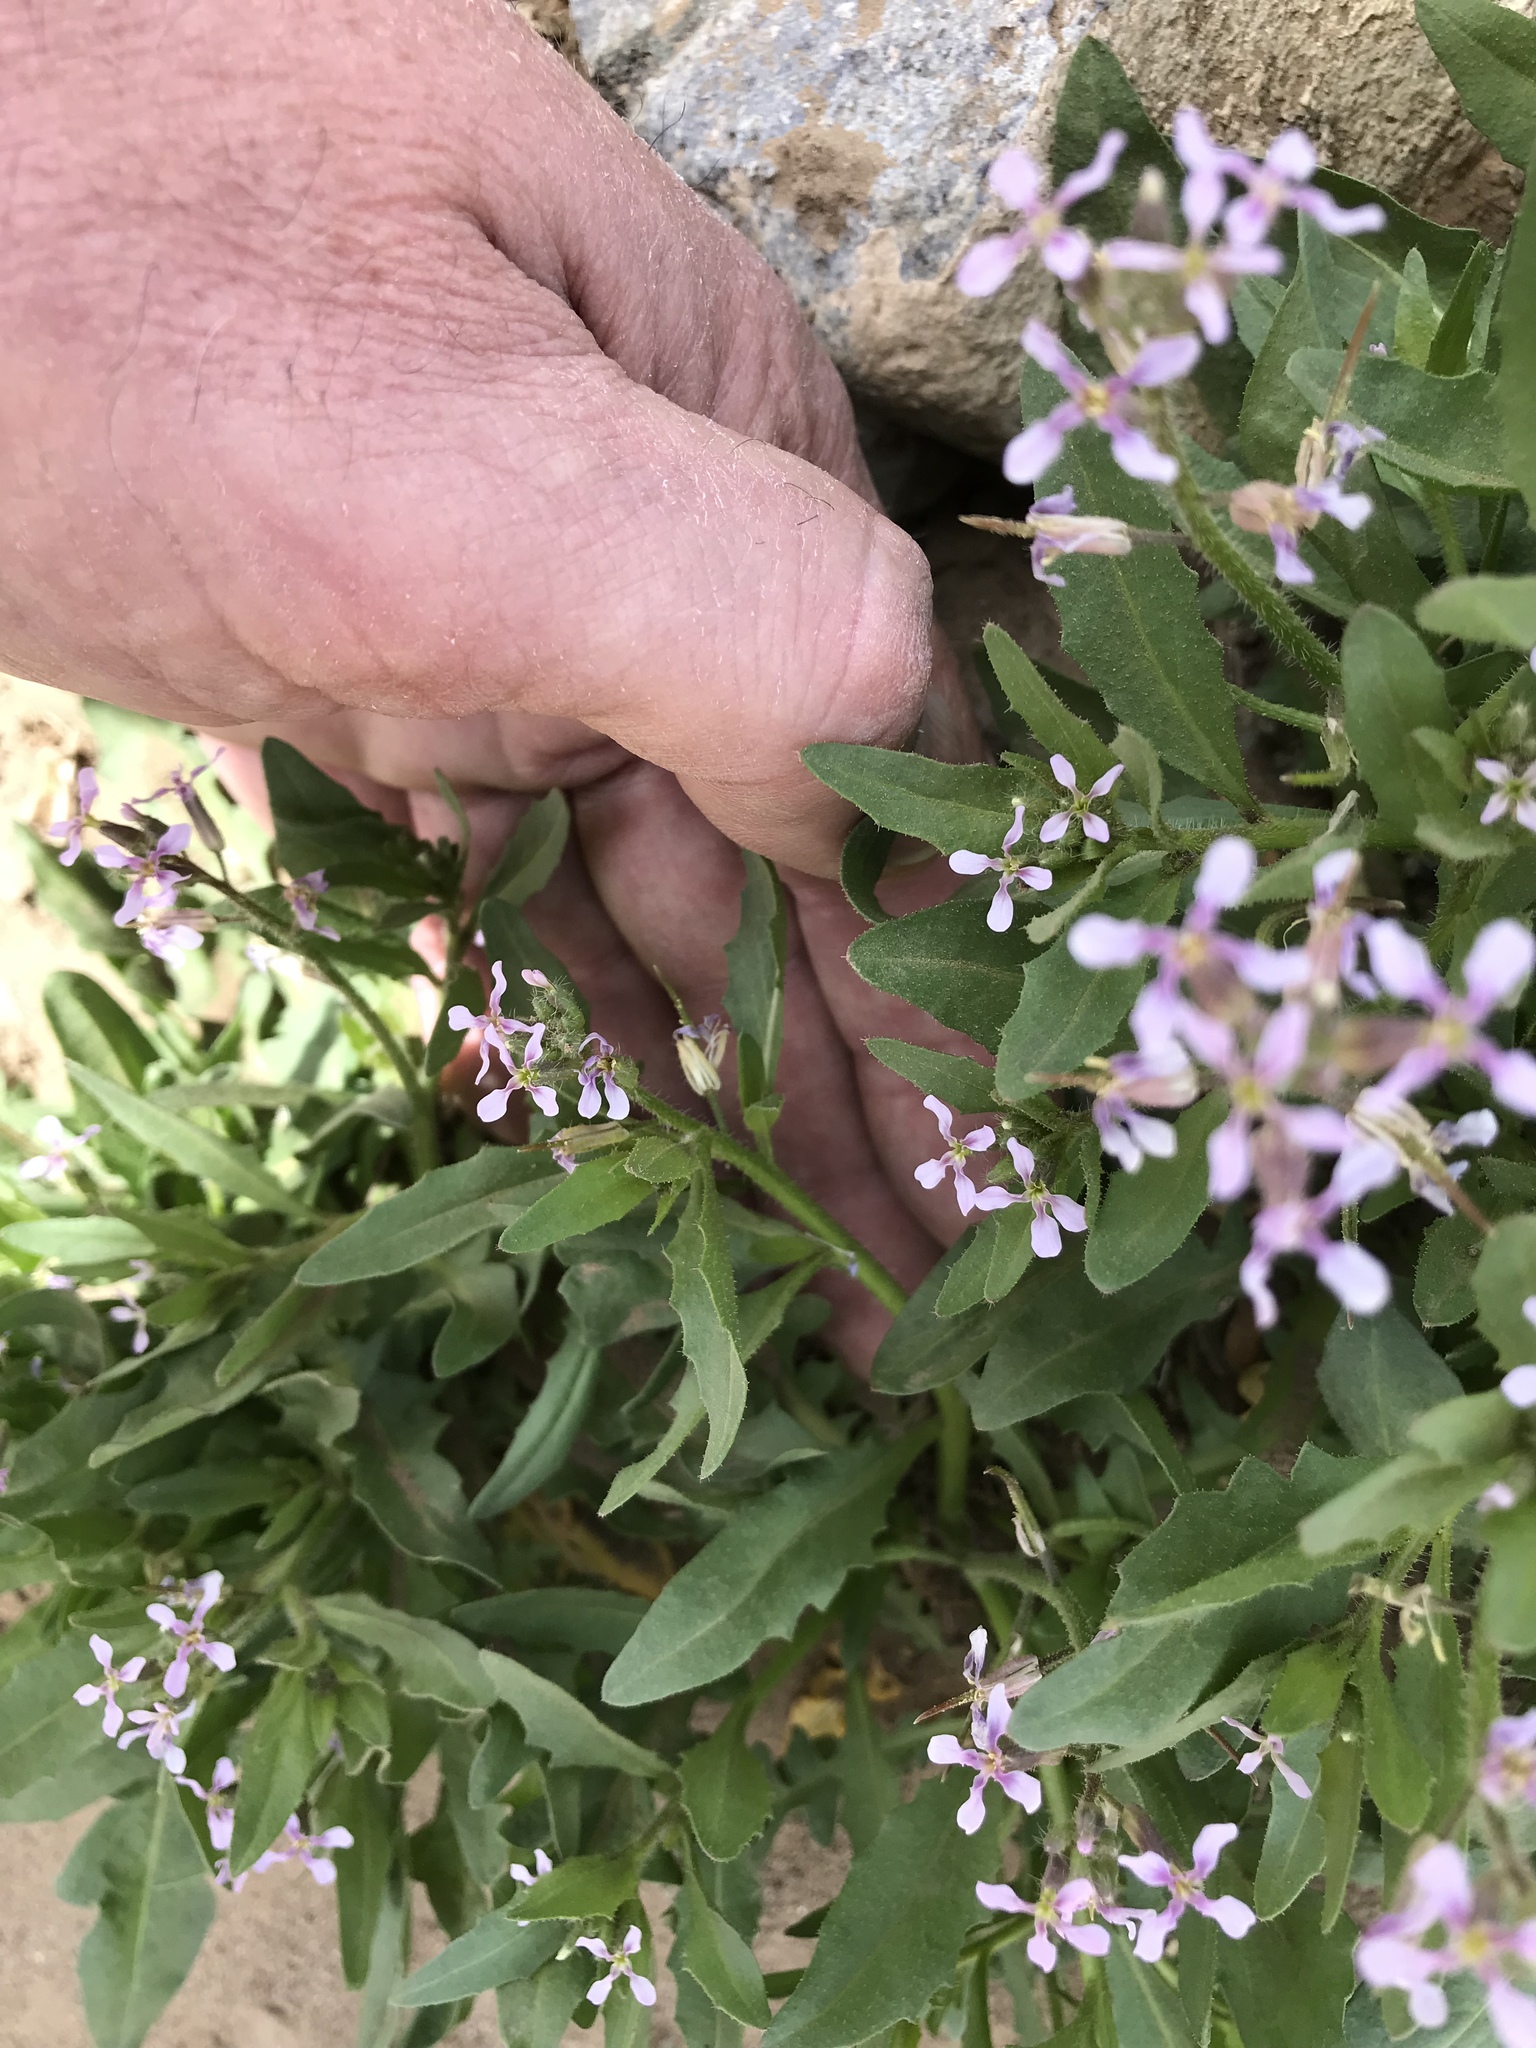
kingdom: Plantae
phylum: Tracheophyta
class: Magnoliopsida
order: Brassicales
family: Brassicaceae
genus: Chorispora
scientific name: Chorispora tenella
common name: Crossflower
